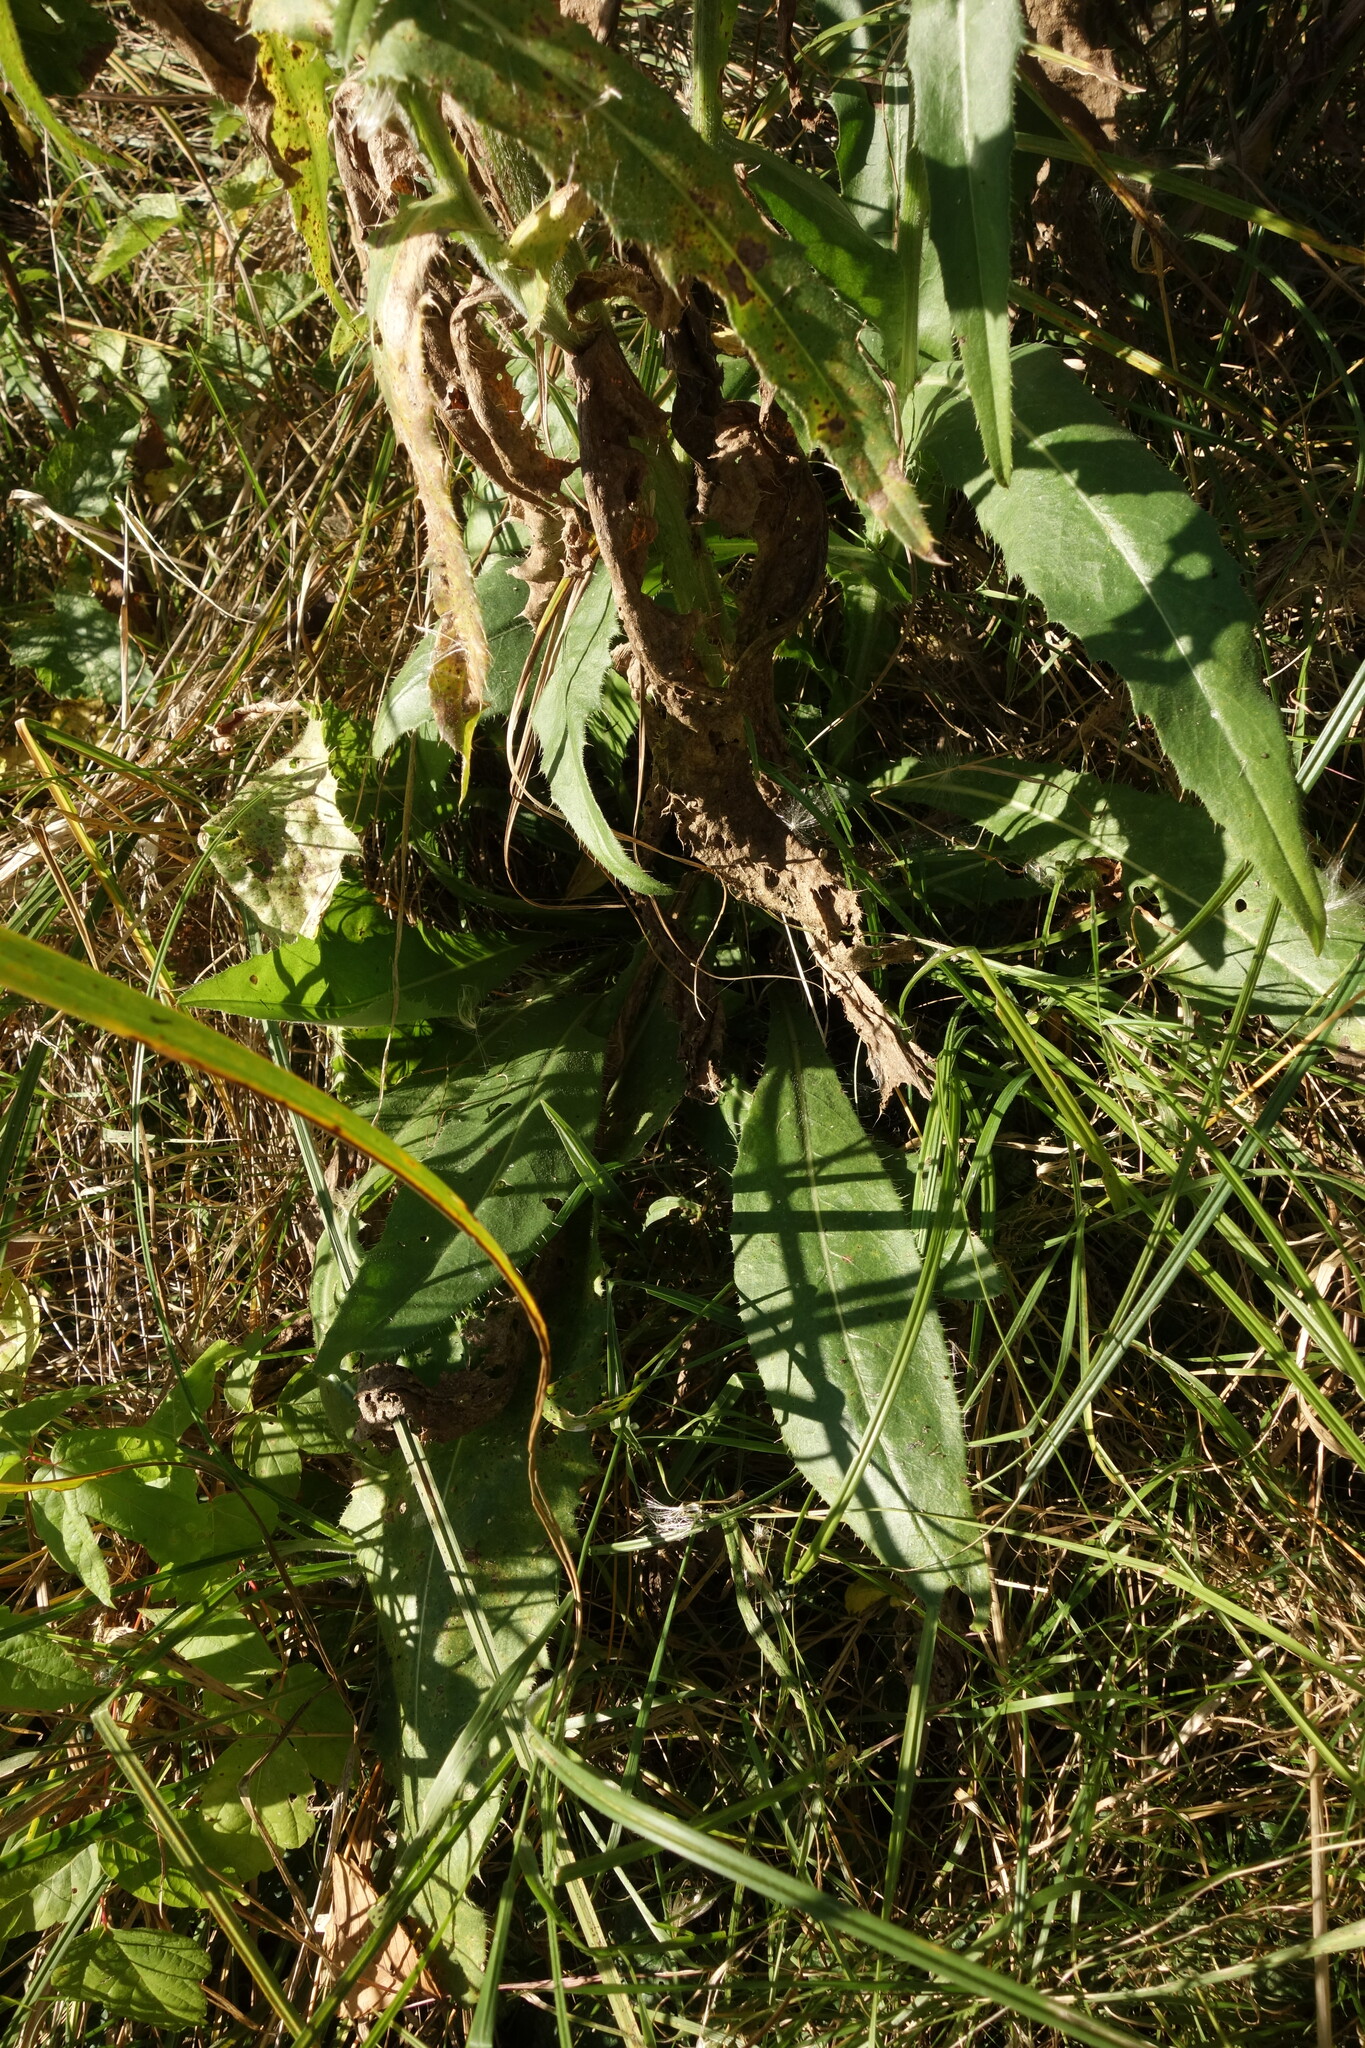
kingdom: Plantae
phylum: Tracheophyta
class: Magnoliopsida
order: Asterales
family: Asteraceae
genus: Cirsium
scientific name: Cirsium canum
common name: Queen anne's thistle
